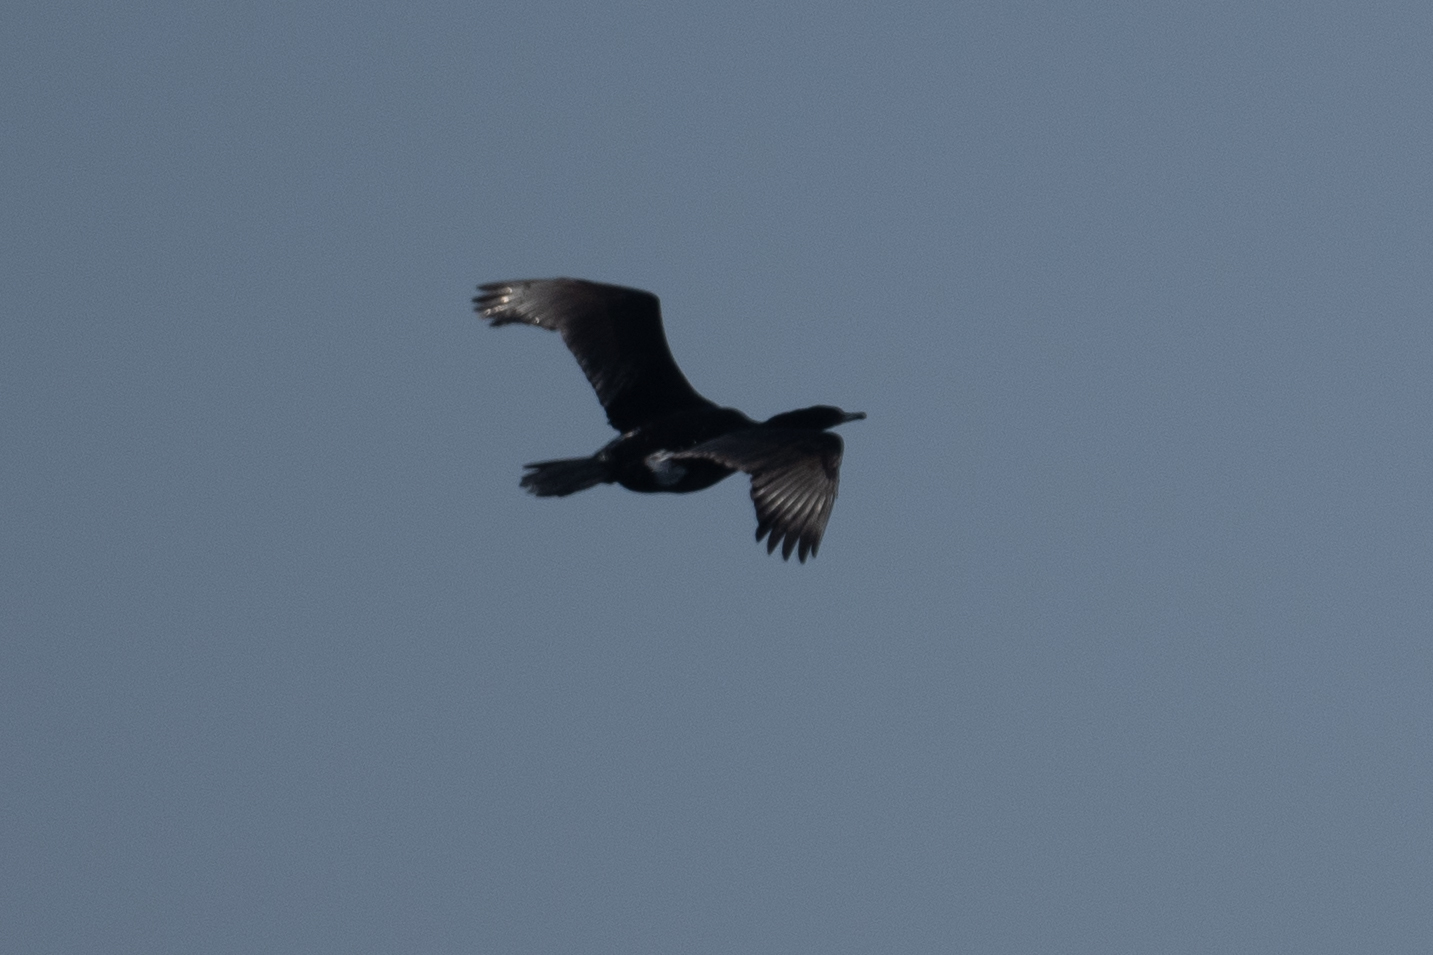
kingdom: Animalia
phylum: Chordata
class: Aves
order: Suliformes
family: Phalacrocoracidae
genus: Phalacrocorax
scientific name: Phalacrocorax pelagicus
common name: Pelagic cormorant
